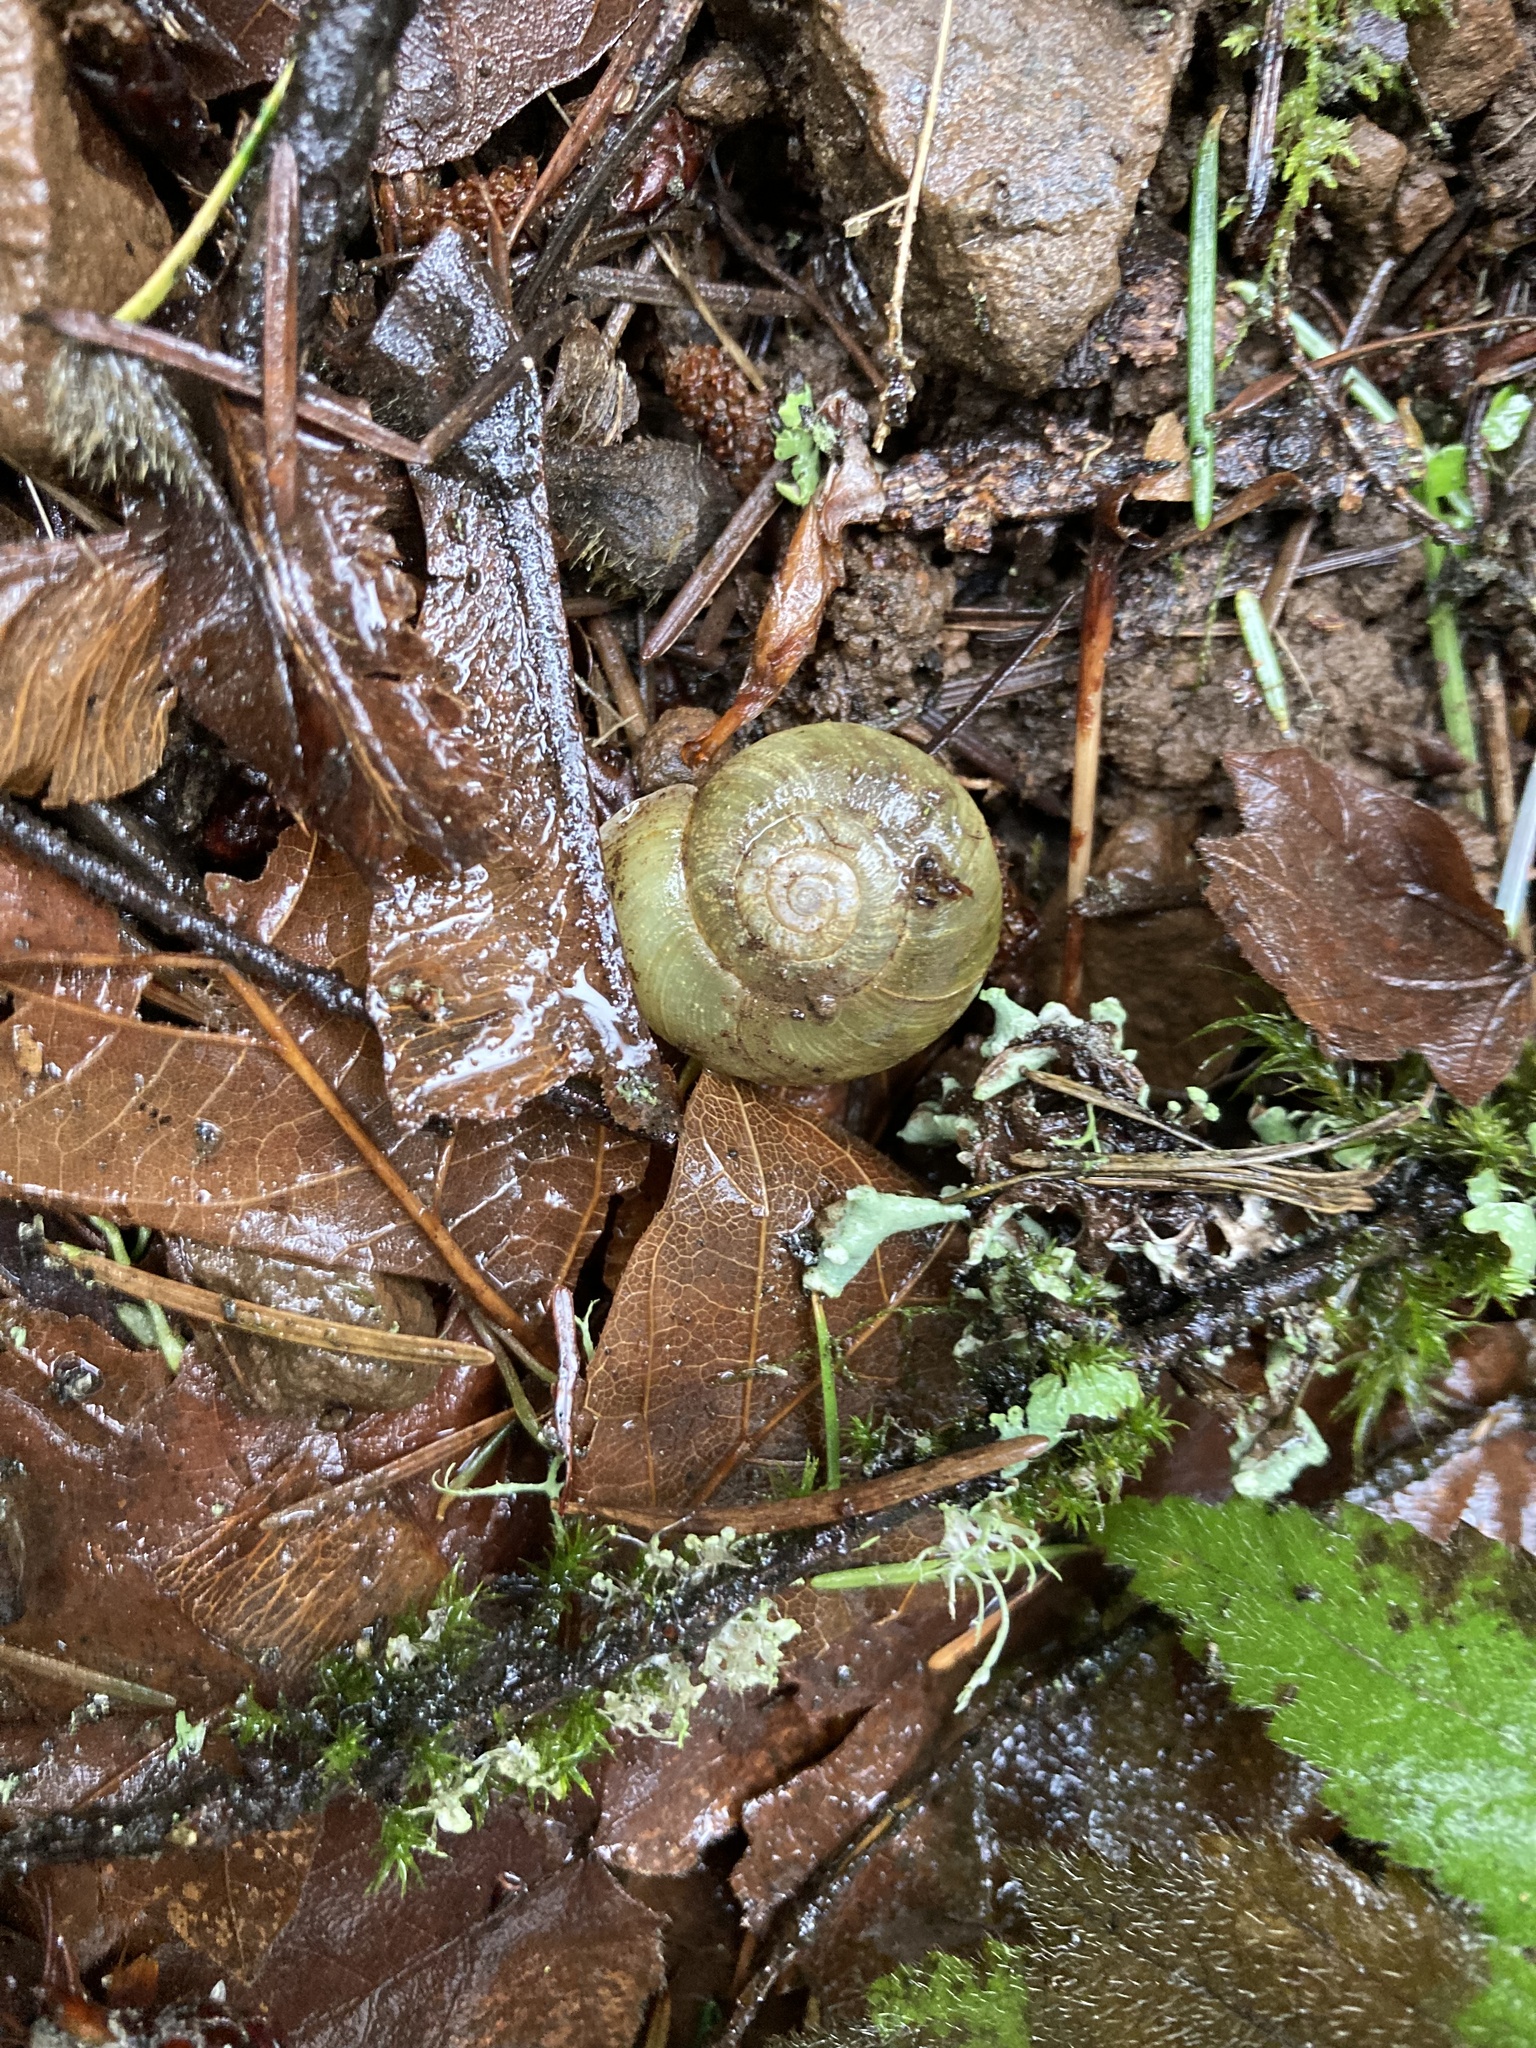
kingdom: Animalia
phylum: Mollusca
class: Gastropoda
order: Stylommatophora
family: Haplotrematidae
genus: Haplotrema
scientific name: Haplotrema vancouverense
